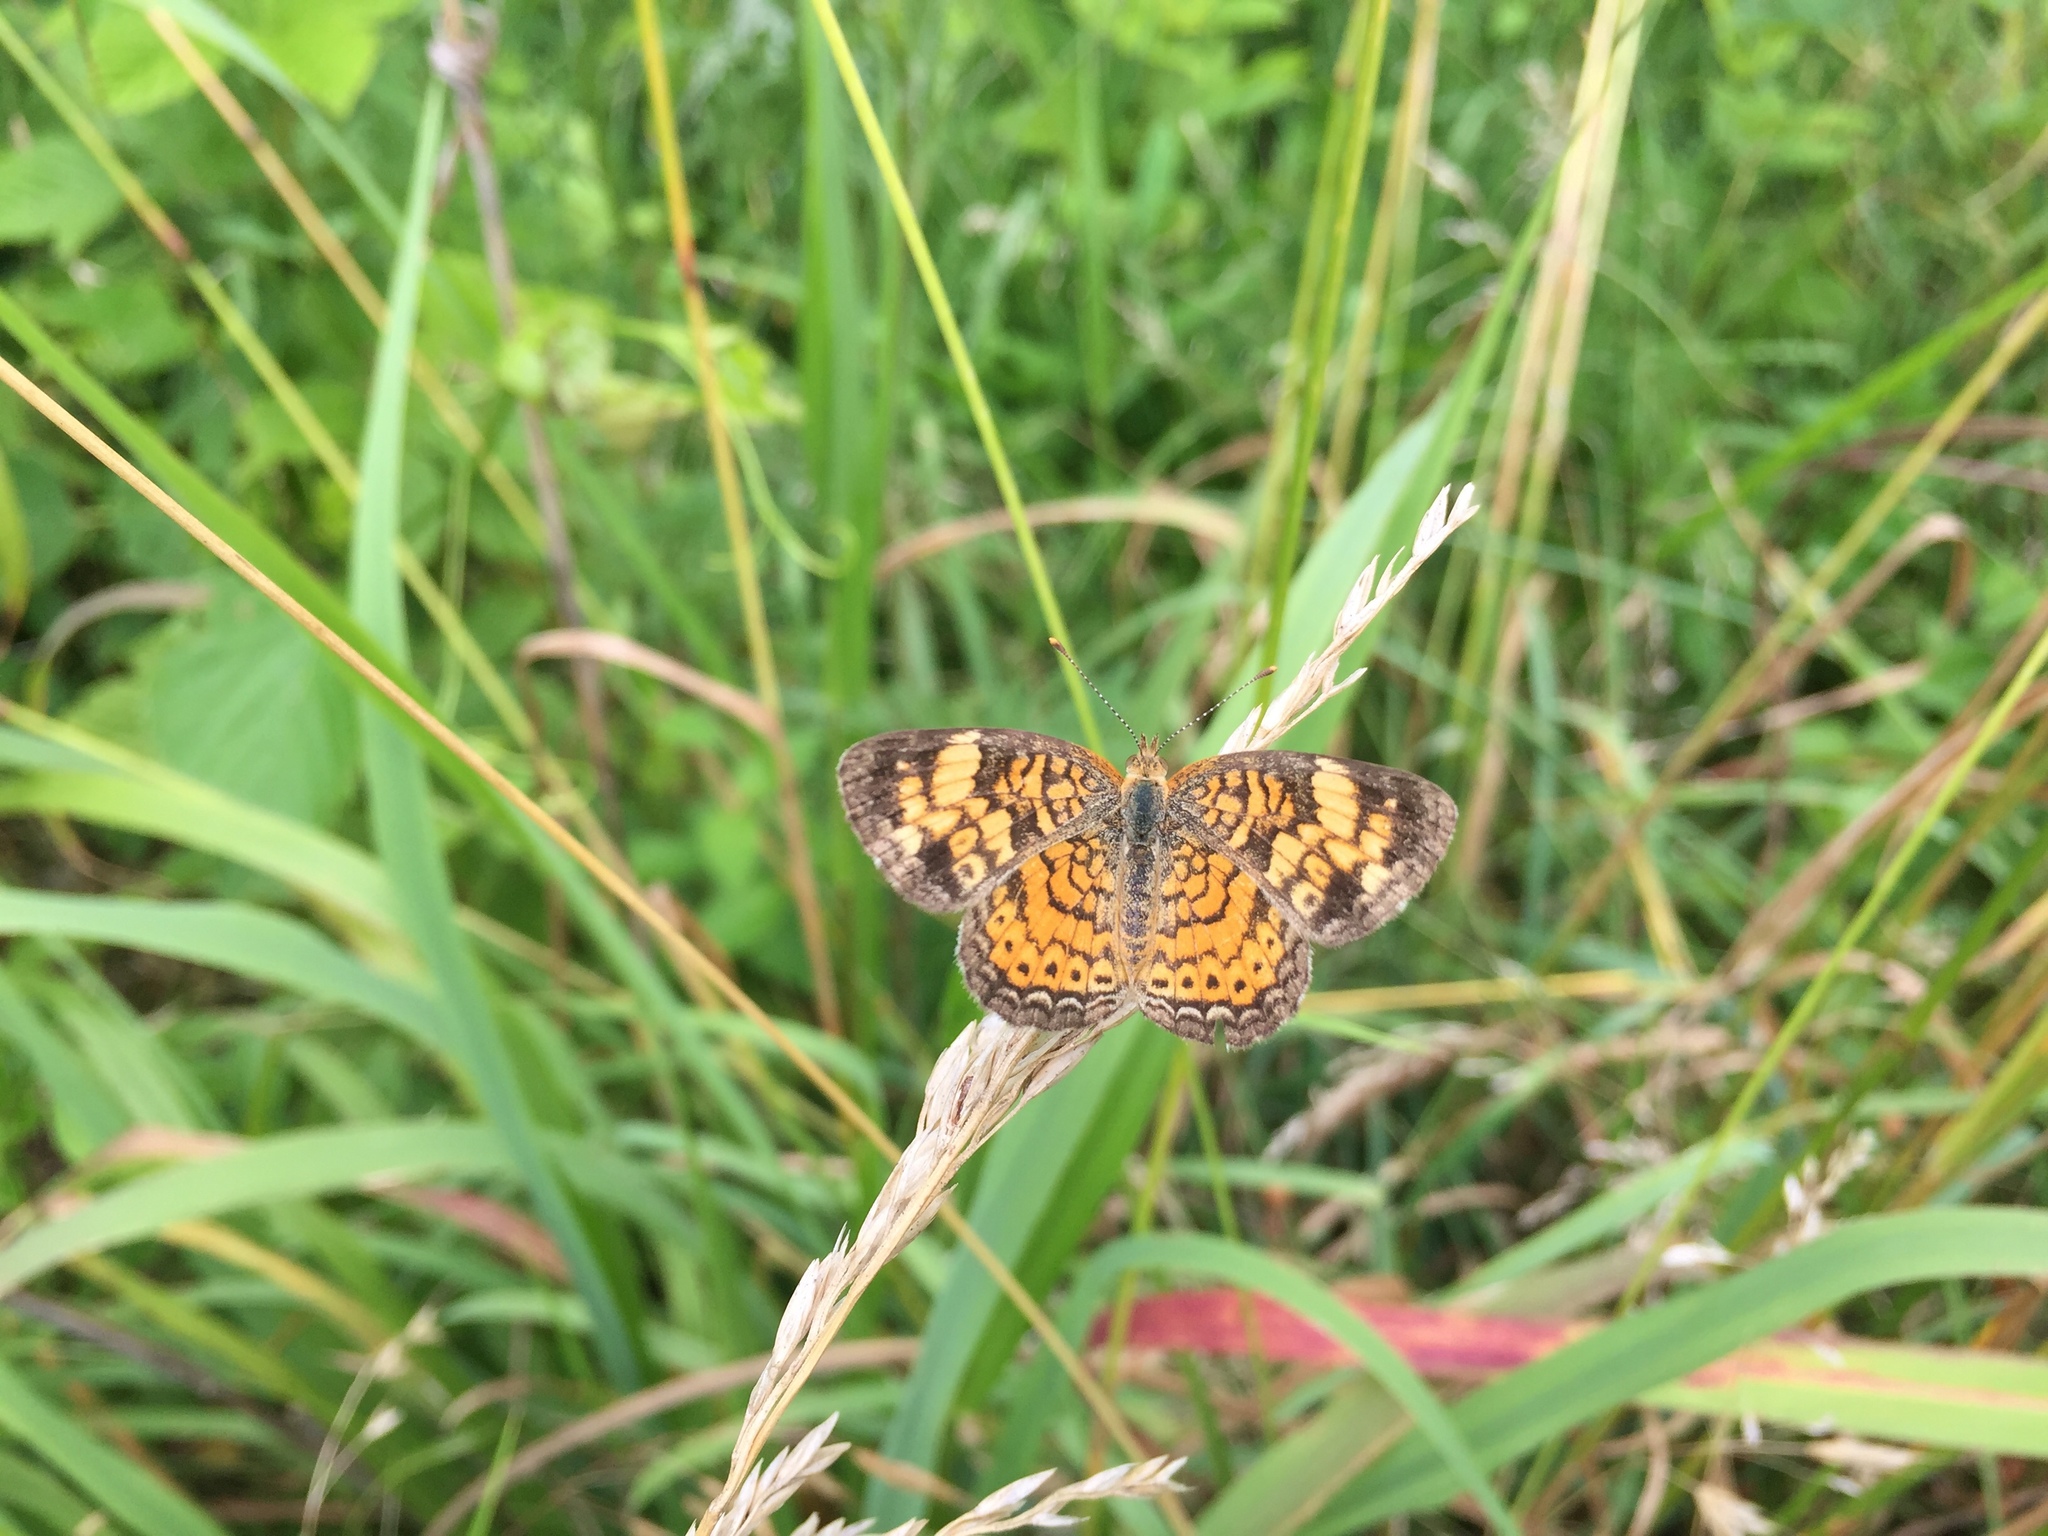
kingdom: Animalia
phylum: Arthropoda
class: Insecta
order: Lepidoptera
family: Nymphalidae
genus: Phyciodes
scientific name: Phyciodes tharos
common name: Pearl crescent
